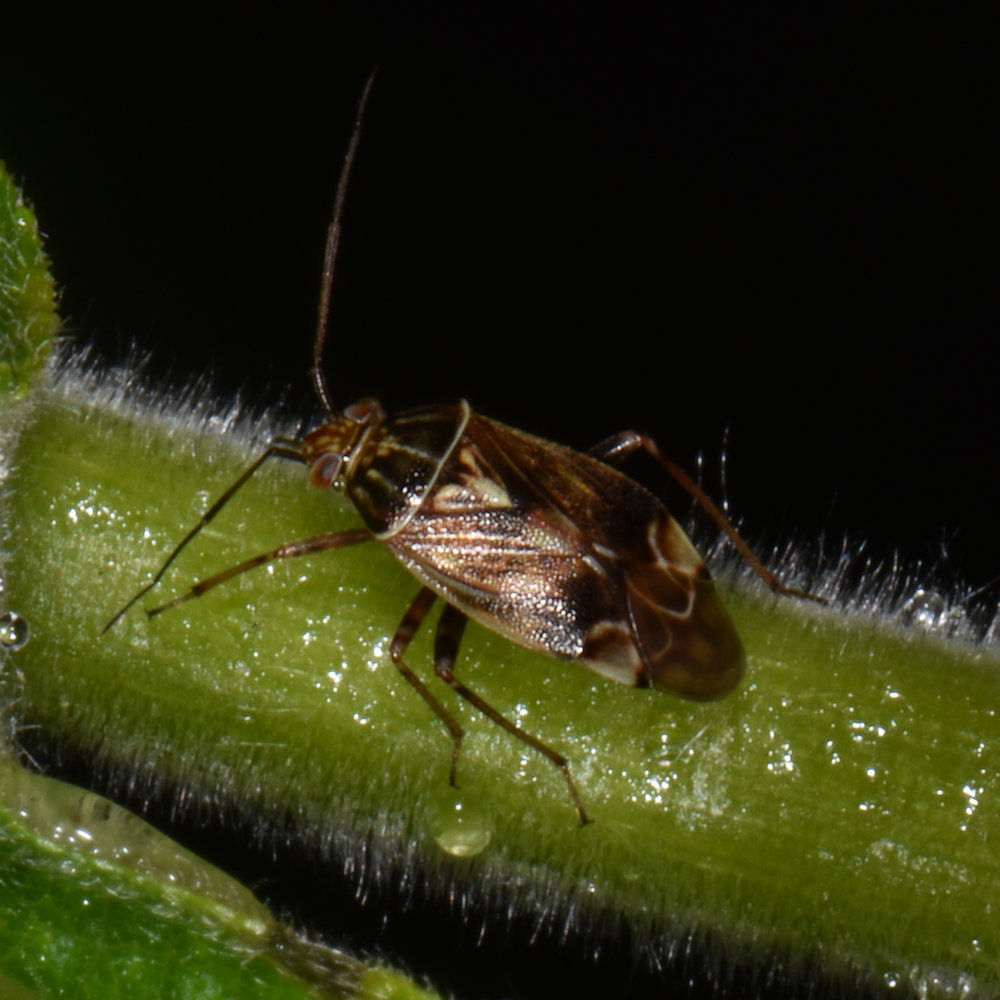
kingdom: Animalia
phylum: Arthropoda
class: Insecta
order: Hemiptera
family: Miridae
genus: Lygus
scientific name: Lygus lineolaris
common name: North american tarnished plant bug
